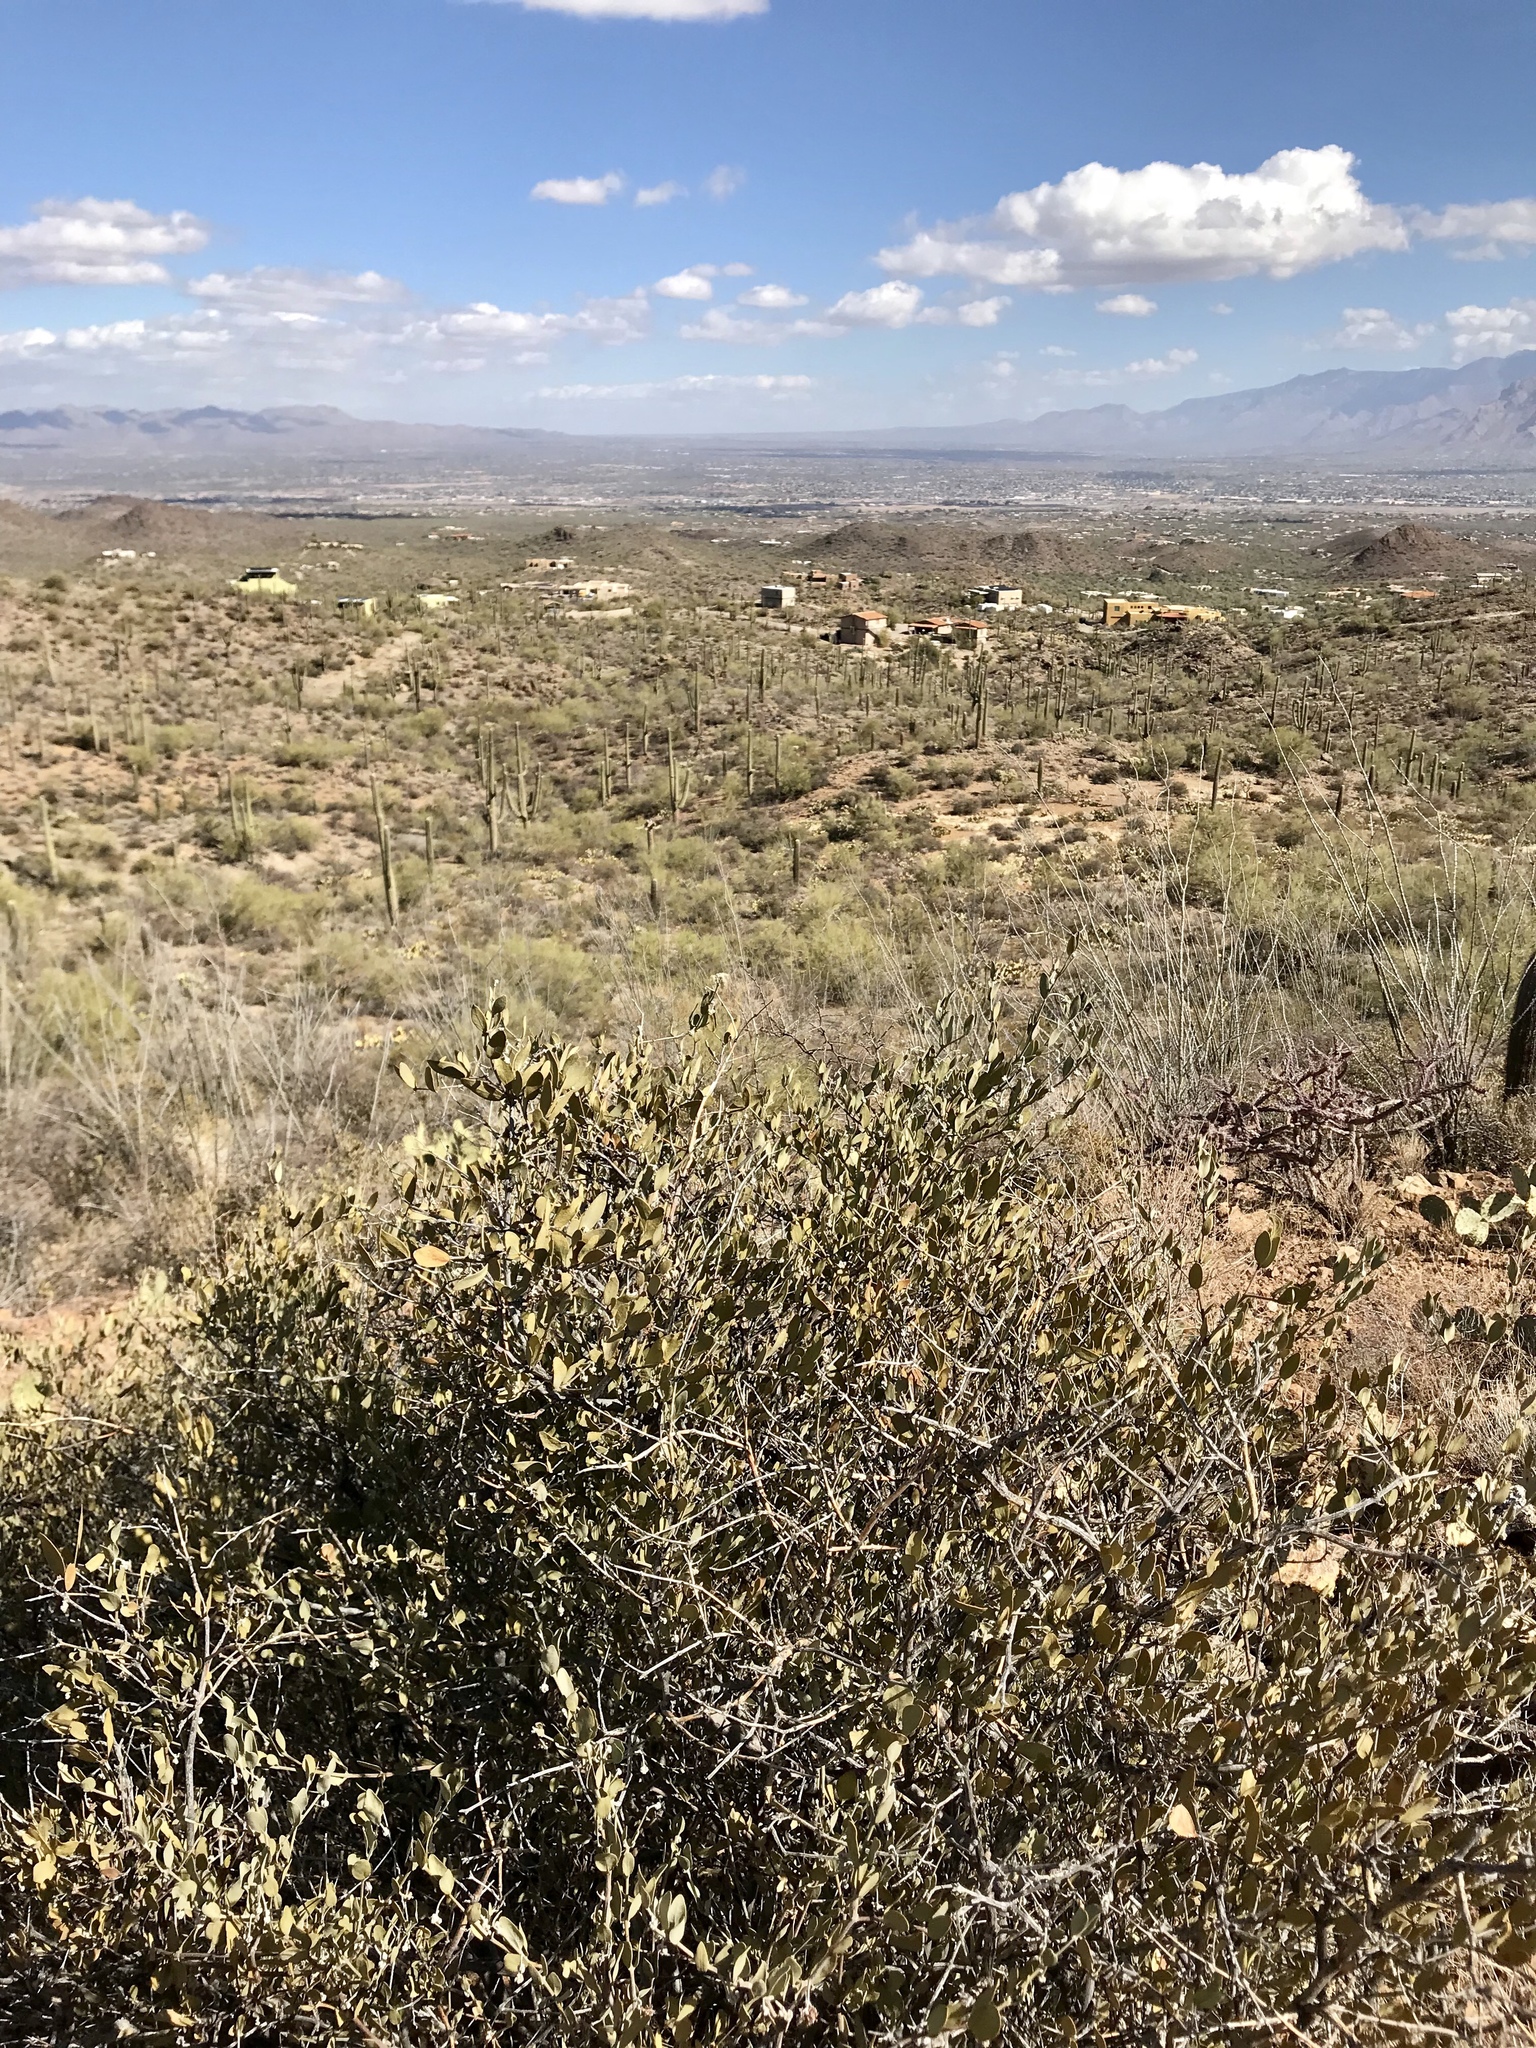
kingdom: Plantae
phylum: Tracheophyta
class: Magnoliopsida
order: Caryophyllales
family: Simmondsiaceae
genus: Simmondsia
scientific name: Simmondsia chinensis
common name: Jojoba
